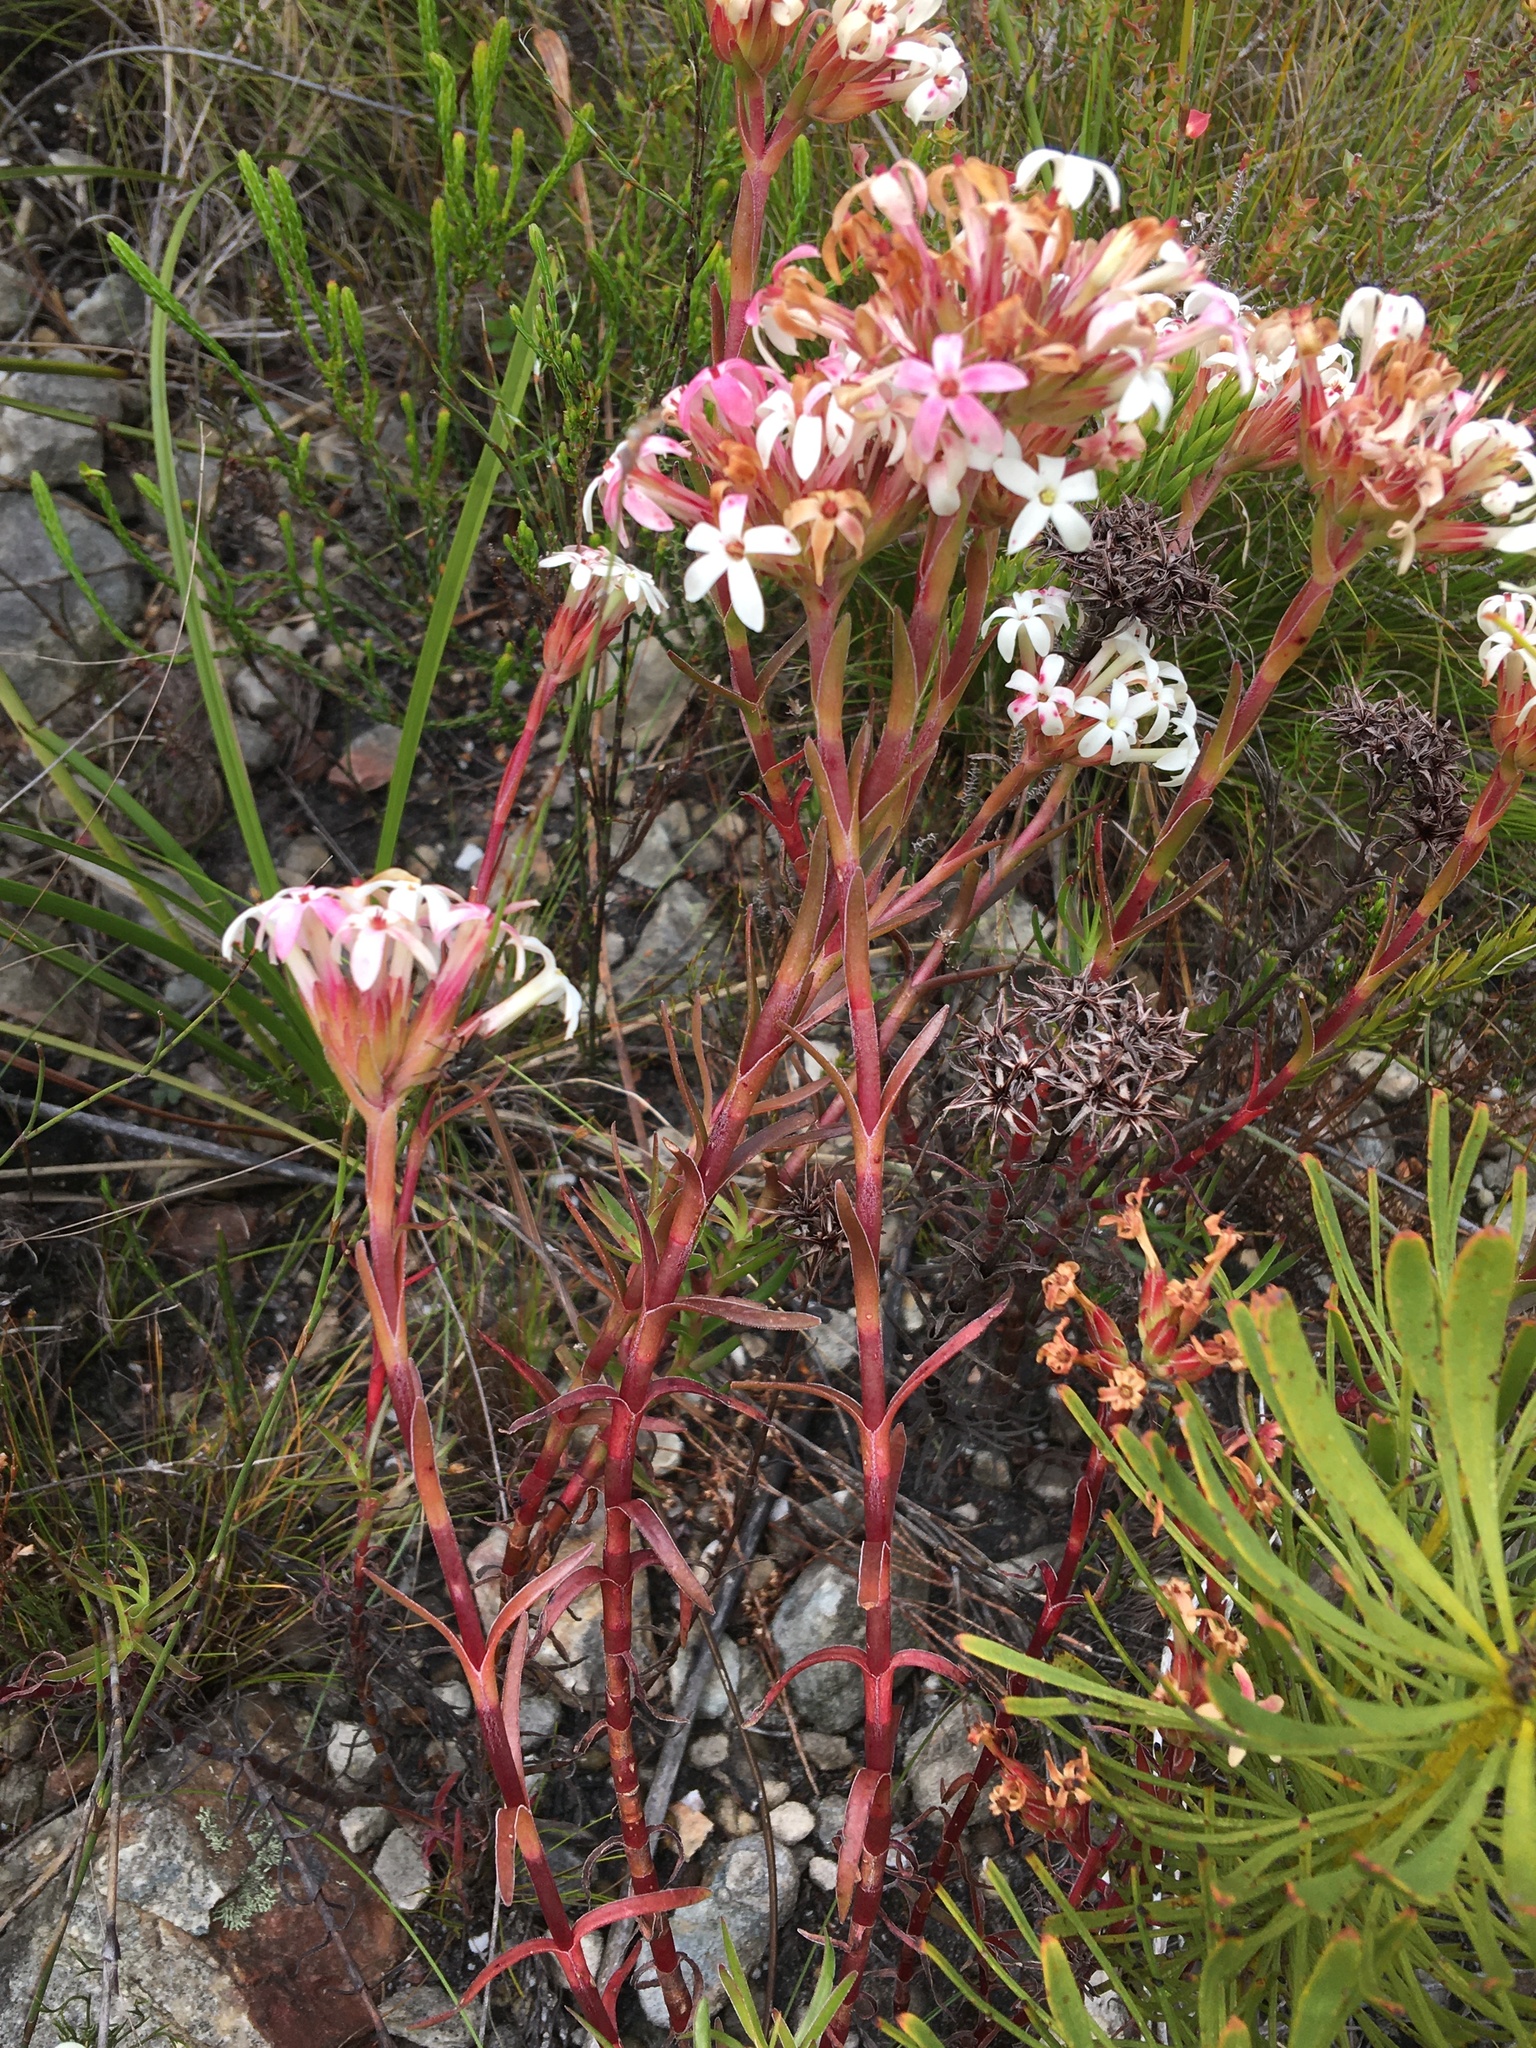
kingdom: Plantae
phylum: Tracheophyta
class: Magnoliopsida
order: Saxifragales
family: Crassulaceae
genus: Crassula
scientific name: Crassula fascicularis
